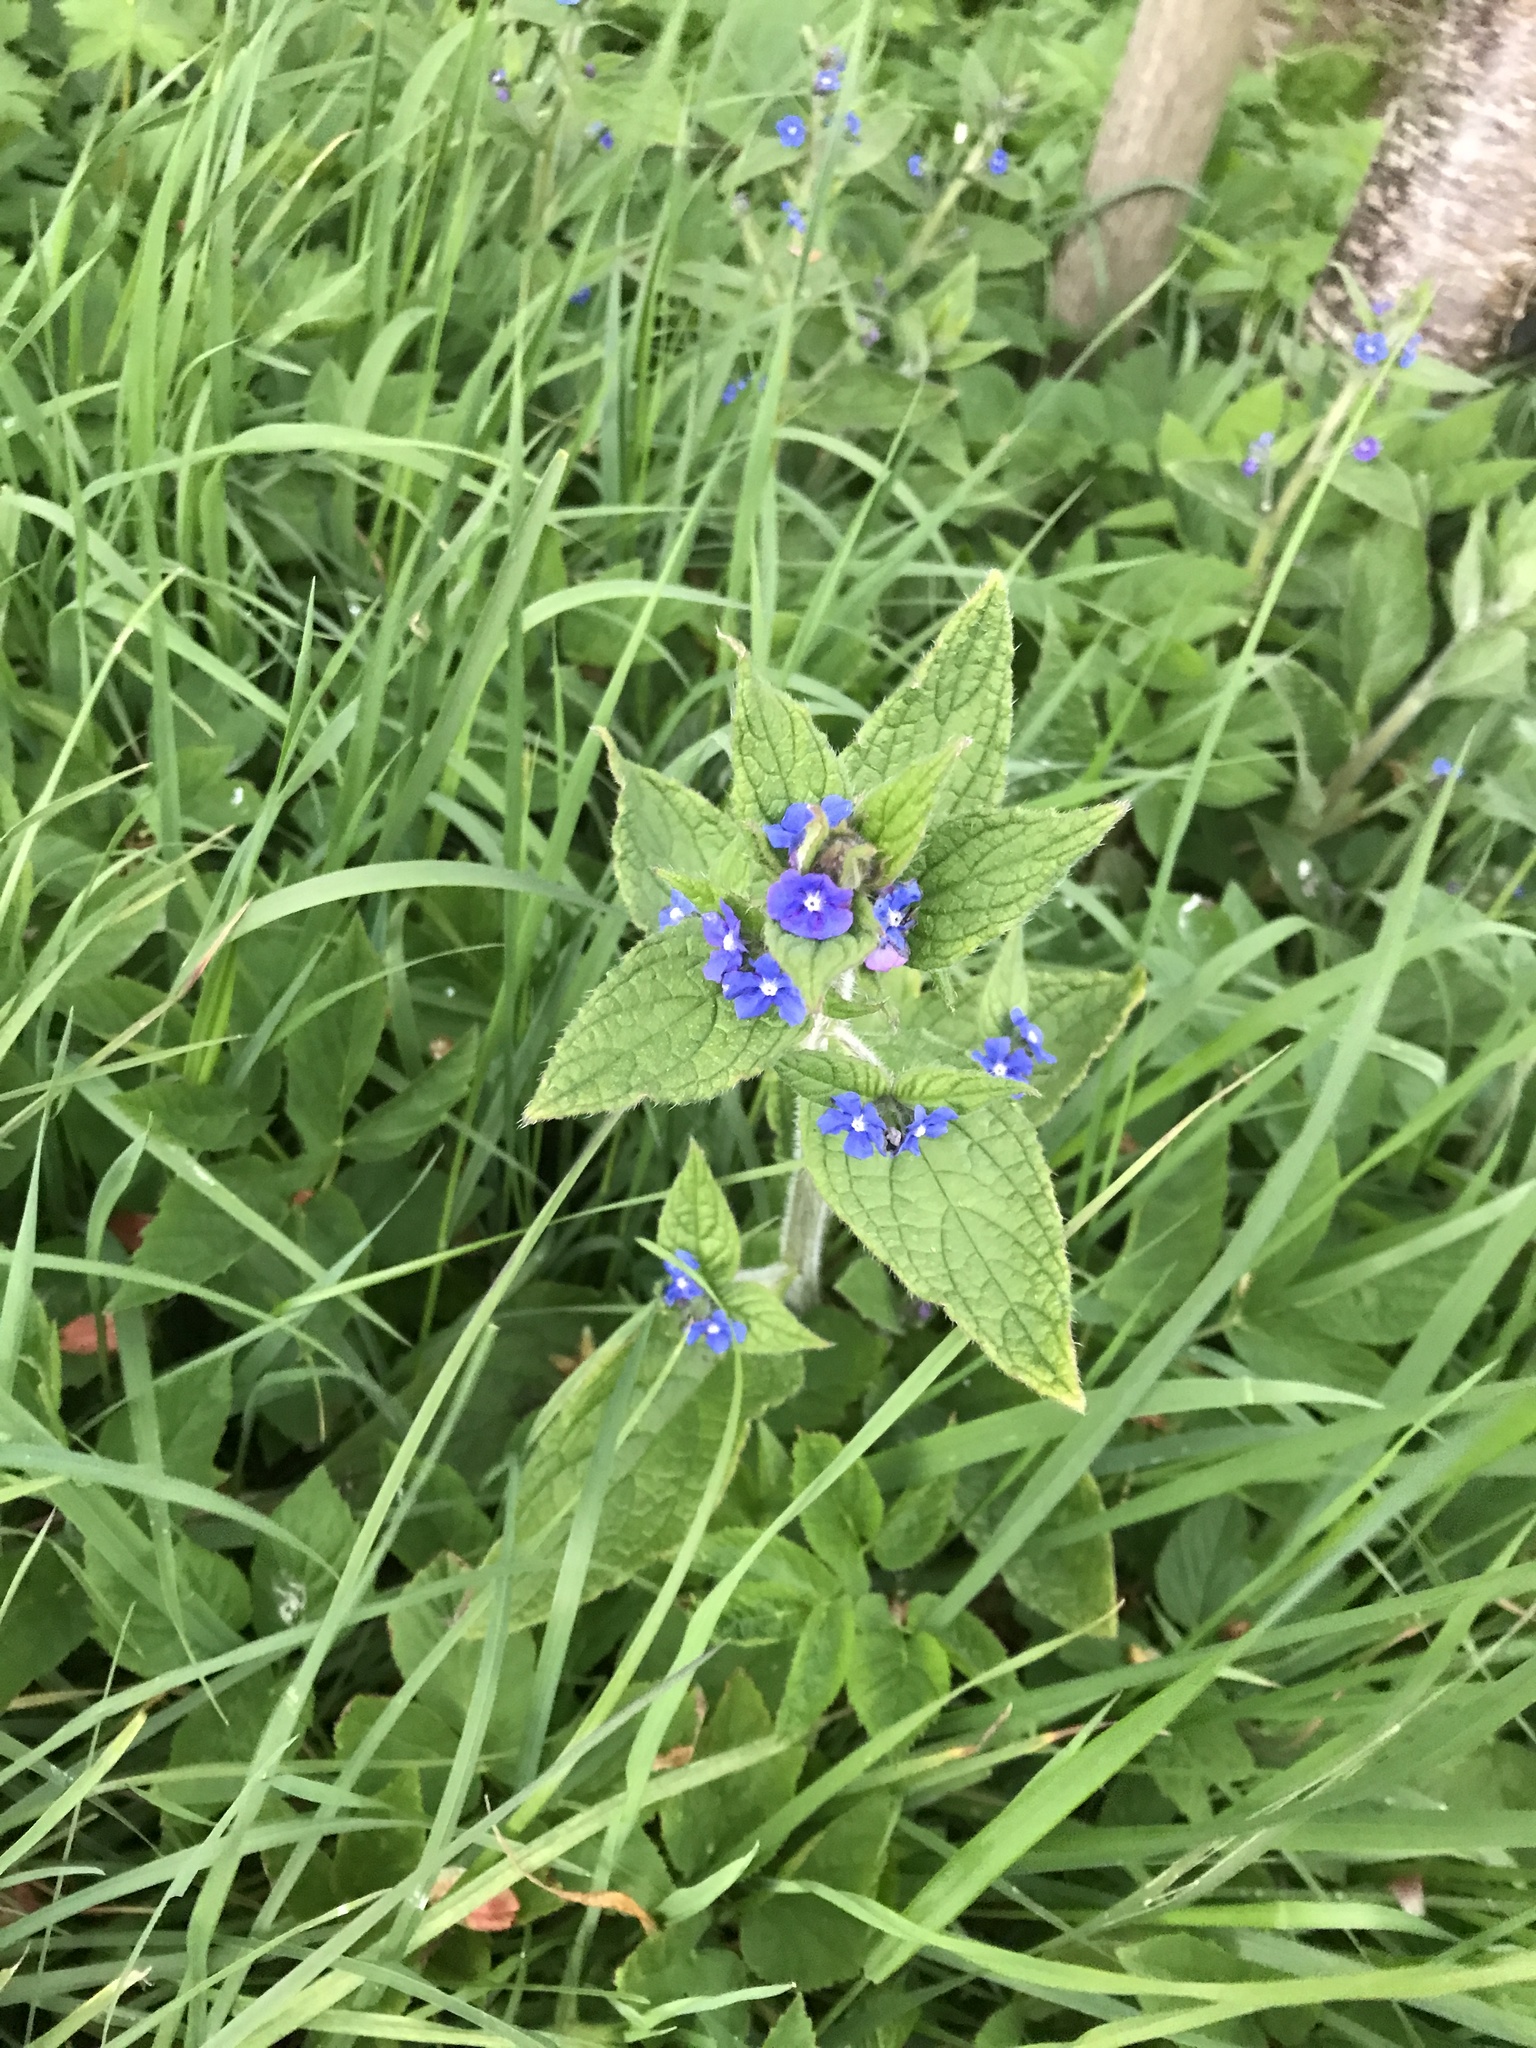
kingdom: Plantae
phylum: Tracheophyta
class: Magnoliopsida
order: Boraginales
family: Boraginaceae
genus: Pentaglottis
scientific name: Pentaglottis sempervirens
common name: Green alkanet
